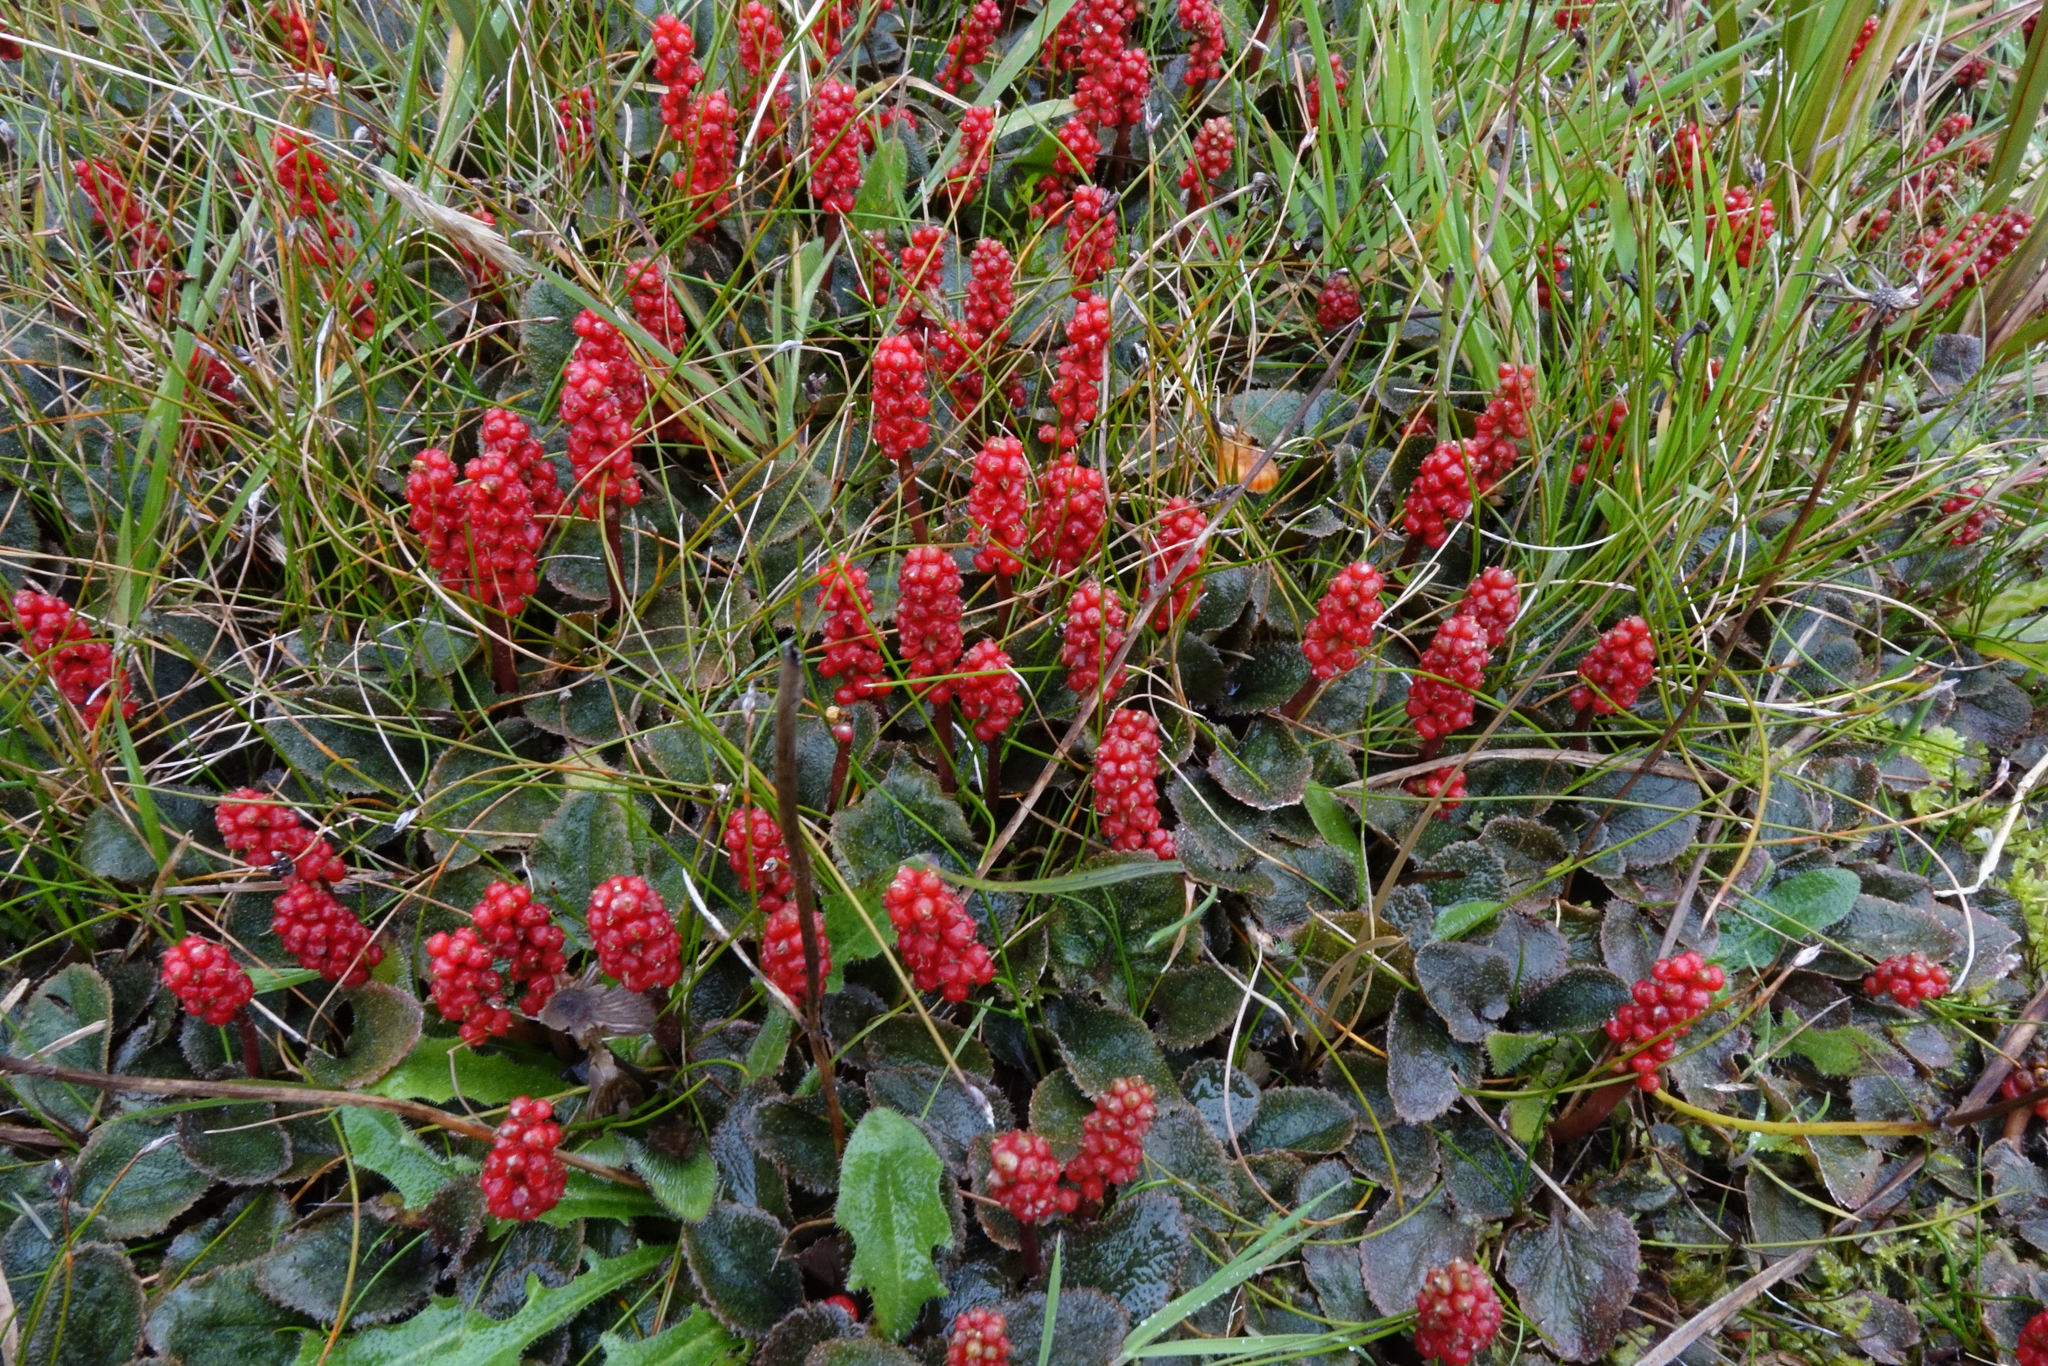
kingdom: Plantae
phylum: Tracheophyta
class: Magnoliopsida
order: Gunnerales
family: Gunneraceae
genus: Gunnera
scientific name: Gunnera prorepens
